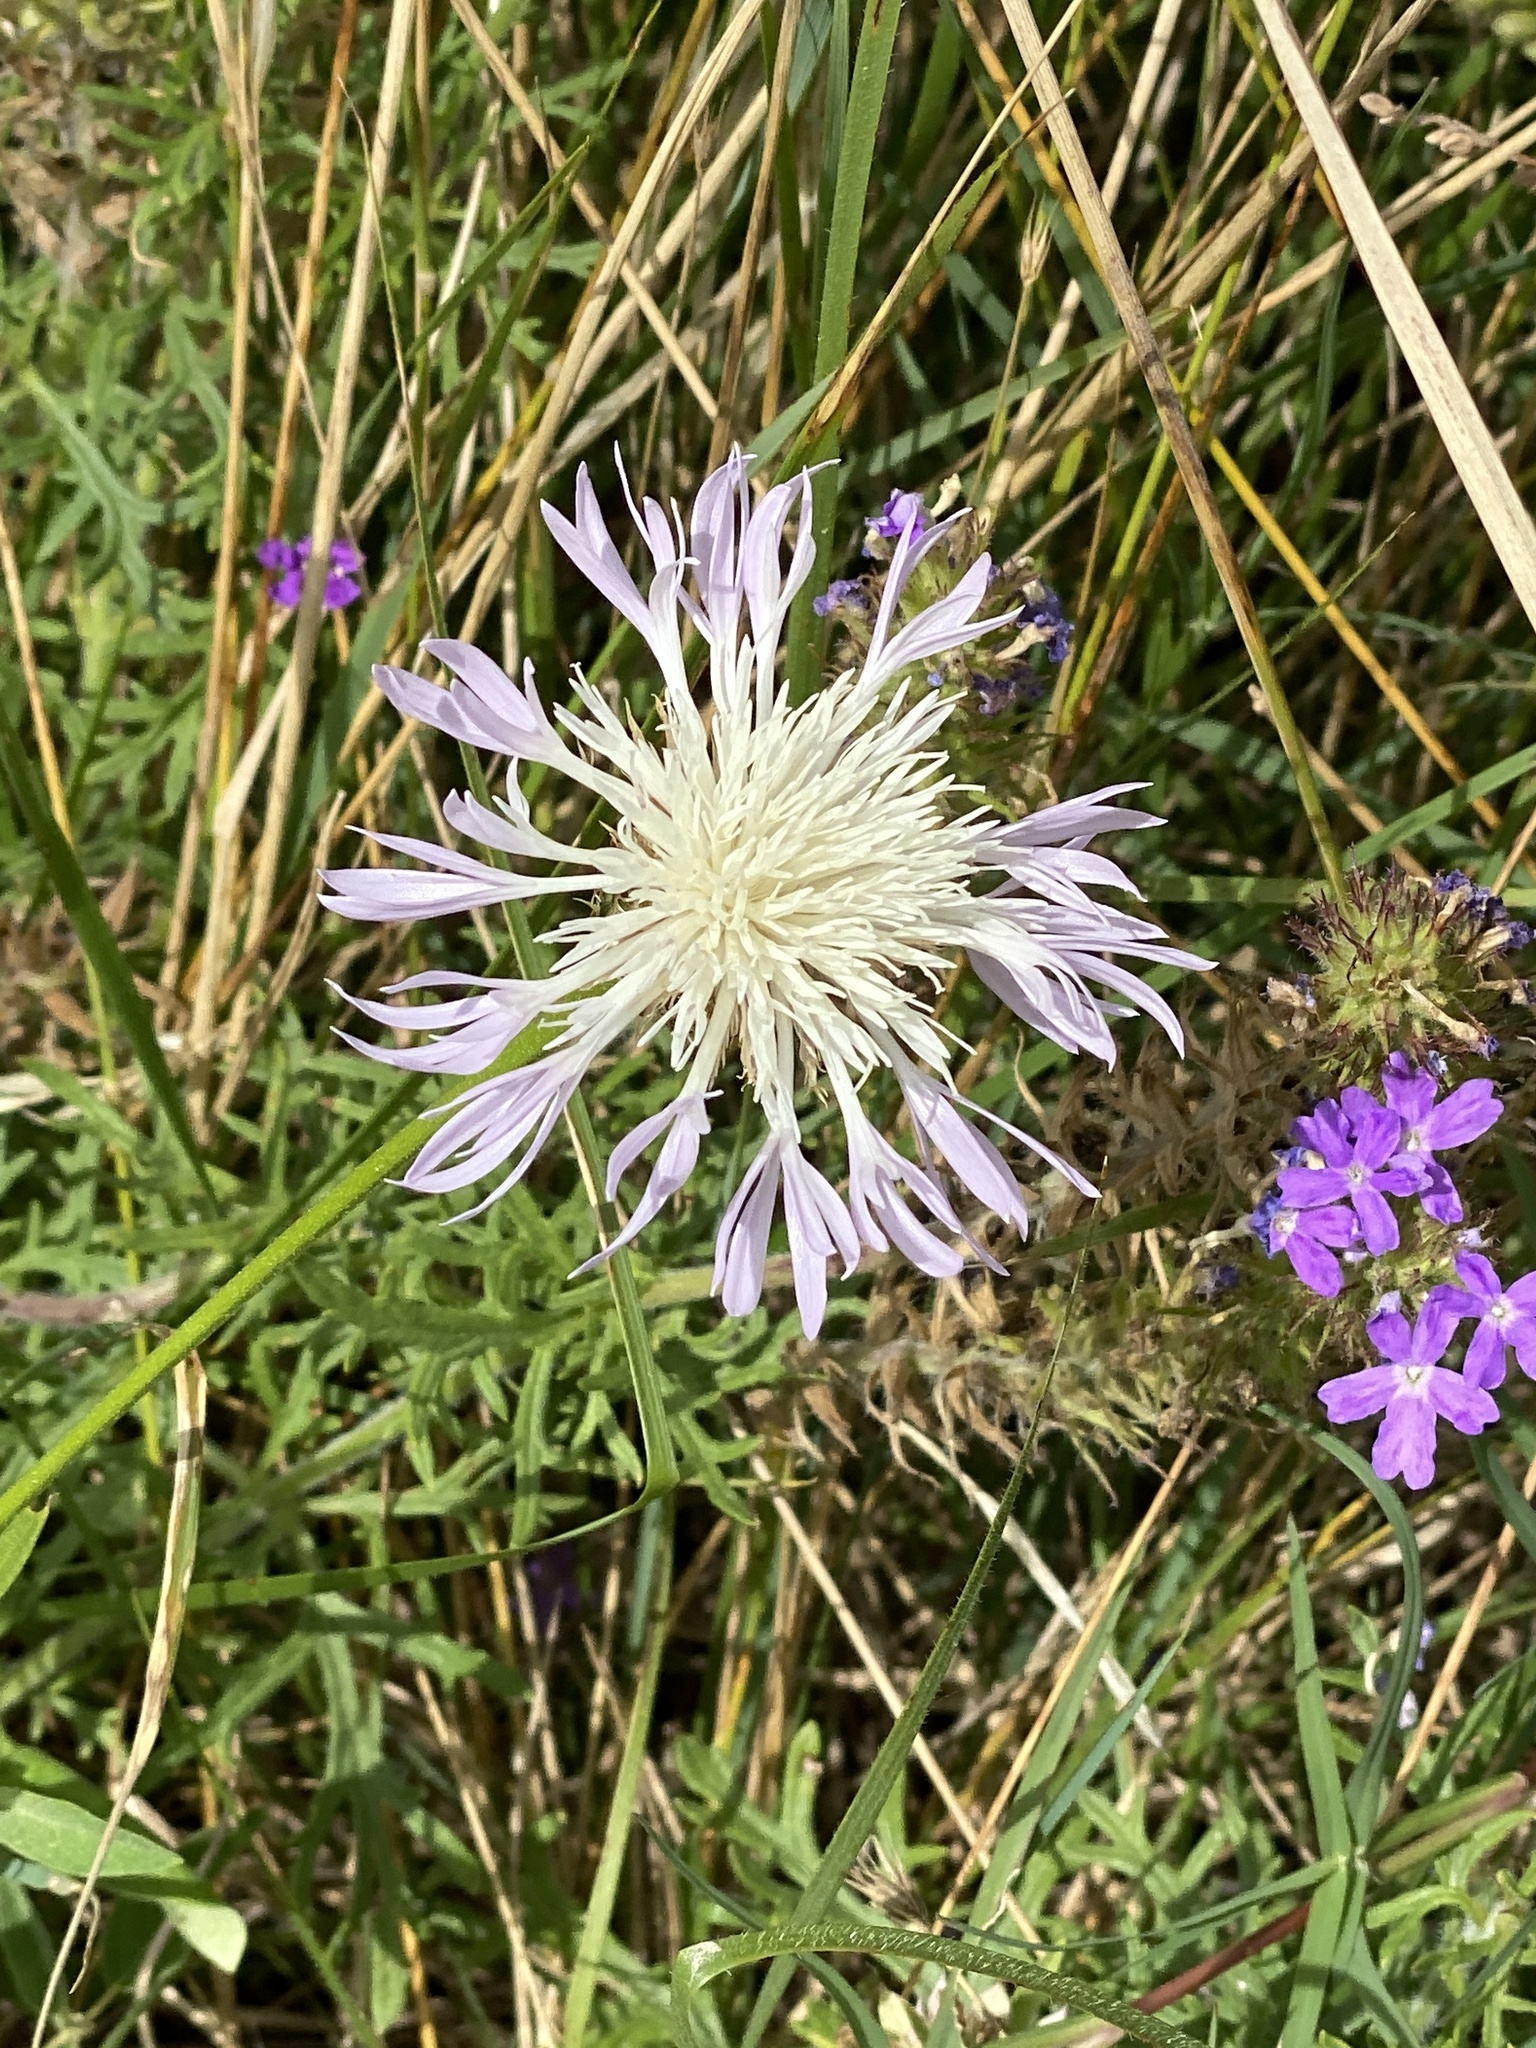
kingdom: Plantae
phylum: Tracheophyta
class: Magnoliopsida
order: Asterales
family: Asteraceae
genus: Plectocephalus
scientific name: Plectocephalus americanus
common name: American basket-flower
